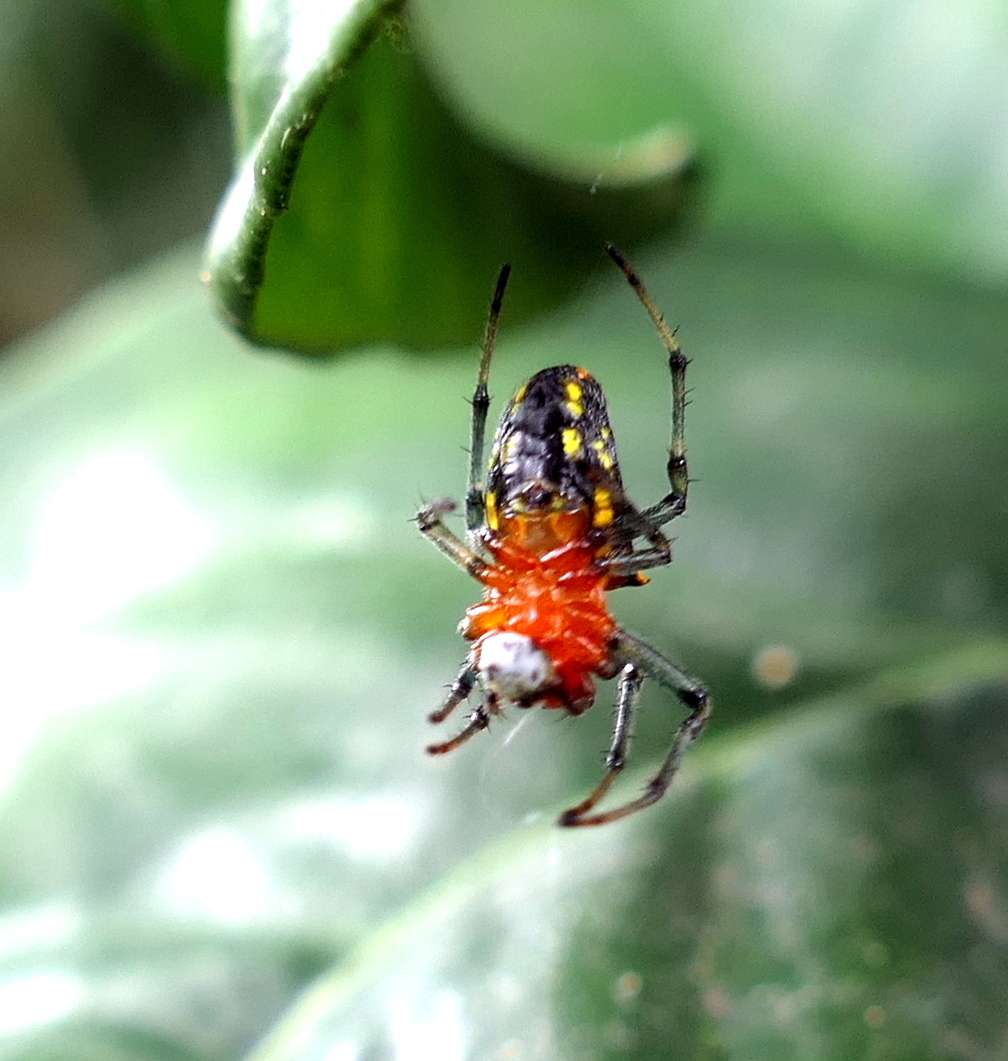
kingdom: Animalia
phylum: Arthropoda
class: Arachnida
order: Araneae
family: Araneidae
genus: Alpaida
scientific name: Alpaida bicornuta
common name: Orb weavers
